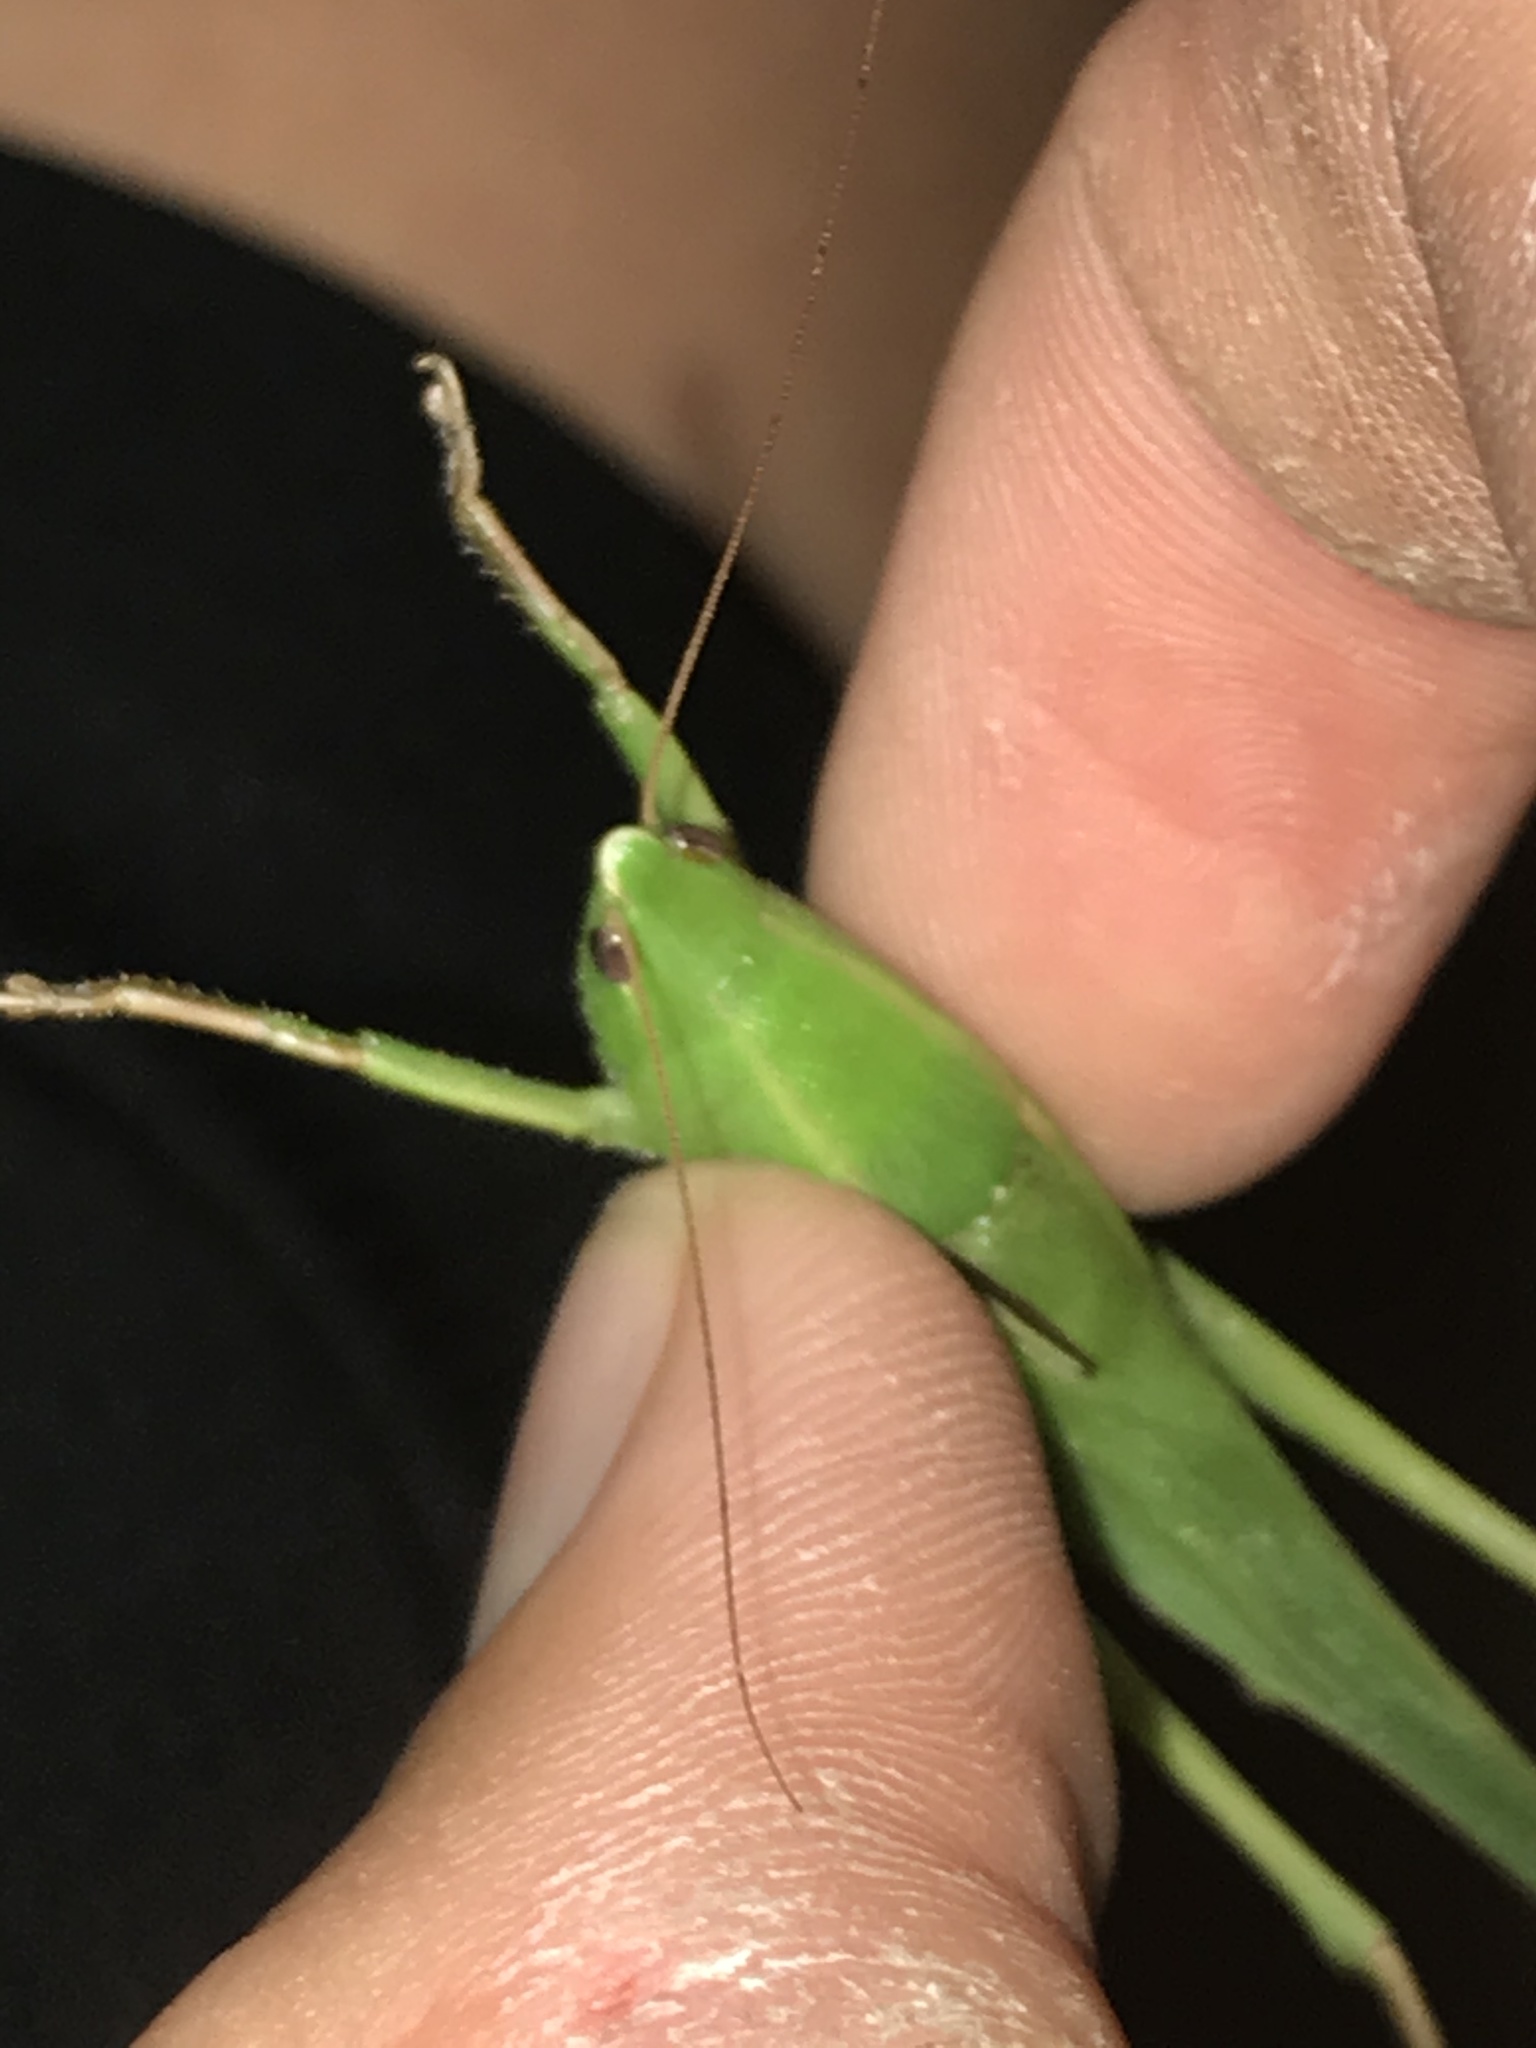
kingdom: Animalia
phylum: Arthropoda
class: Insecta
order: Orthoptera
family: Tettigoniidae
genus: Neoconocephalus
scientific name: Neoconocephalus triops
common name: Broad-tipped conehead
